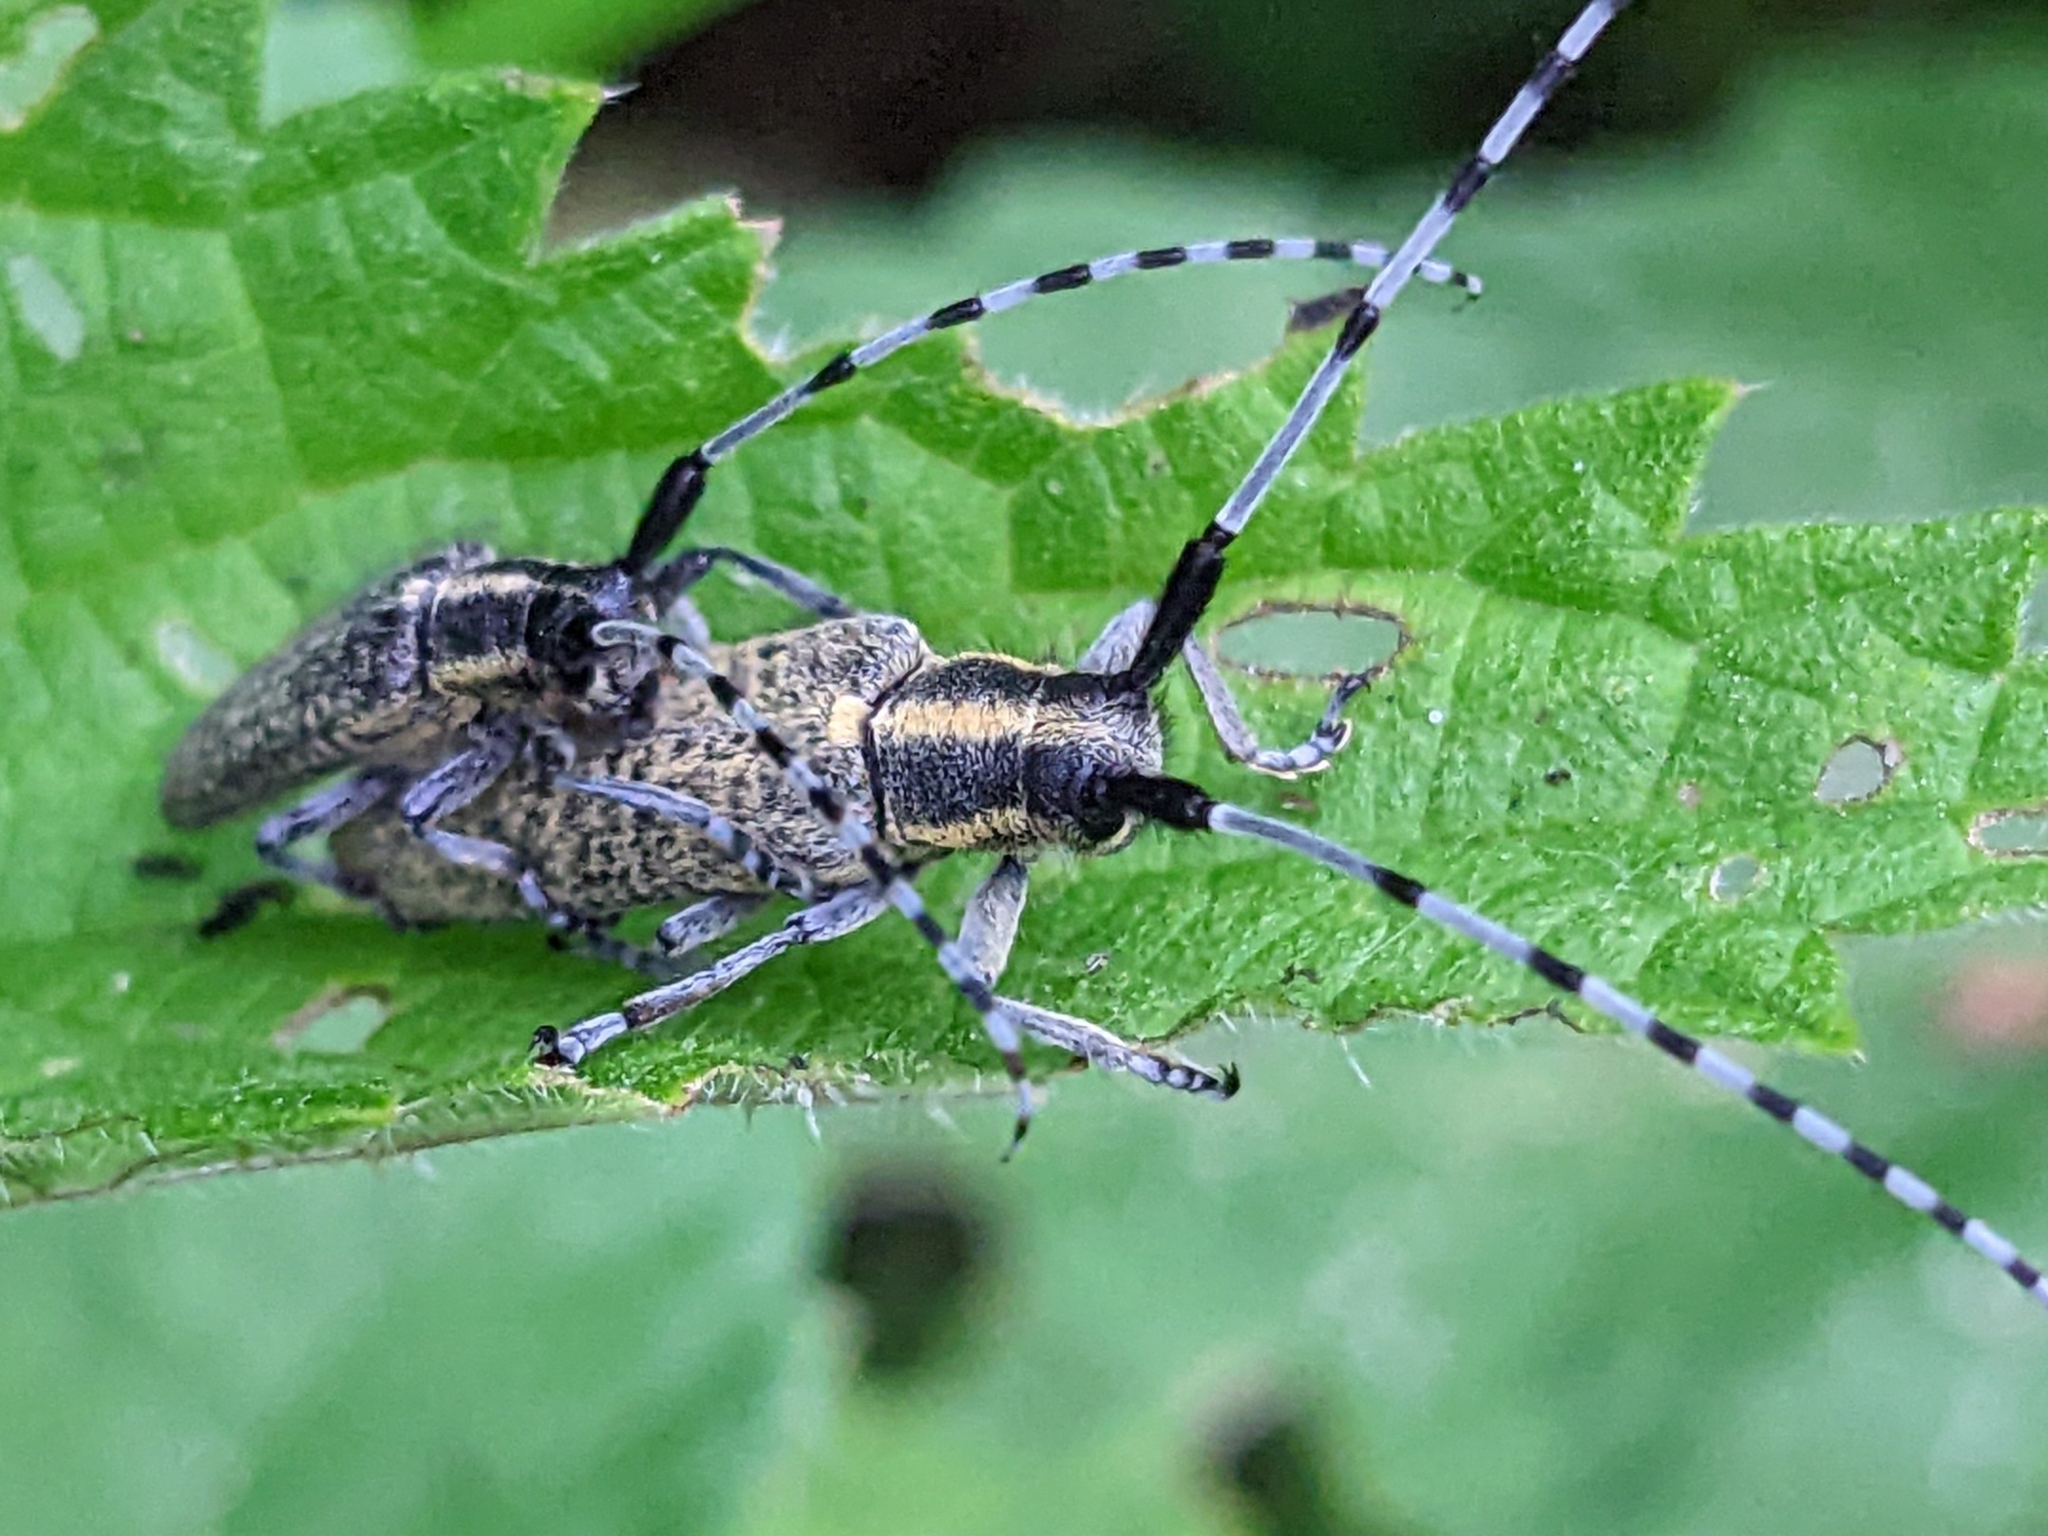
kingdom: Animalia
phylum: Arthropoda
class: Insecta
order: Coleoptera
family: Cerambycidae
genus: Agapanthia
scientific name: Agapanthia villosoviridescens
